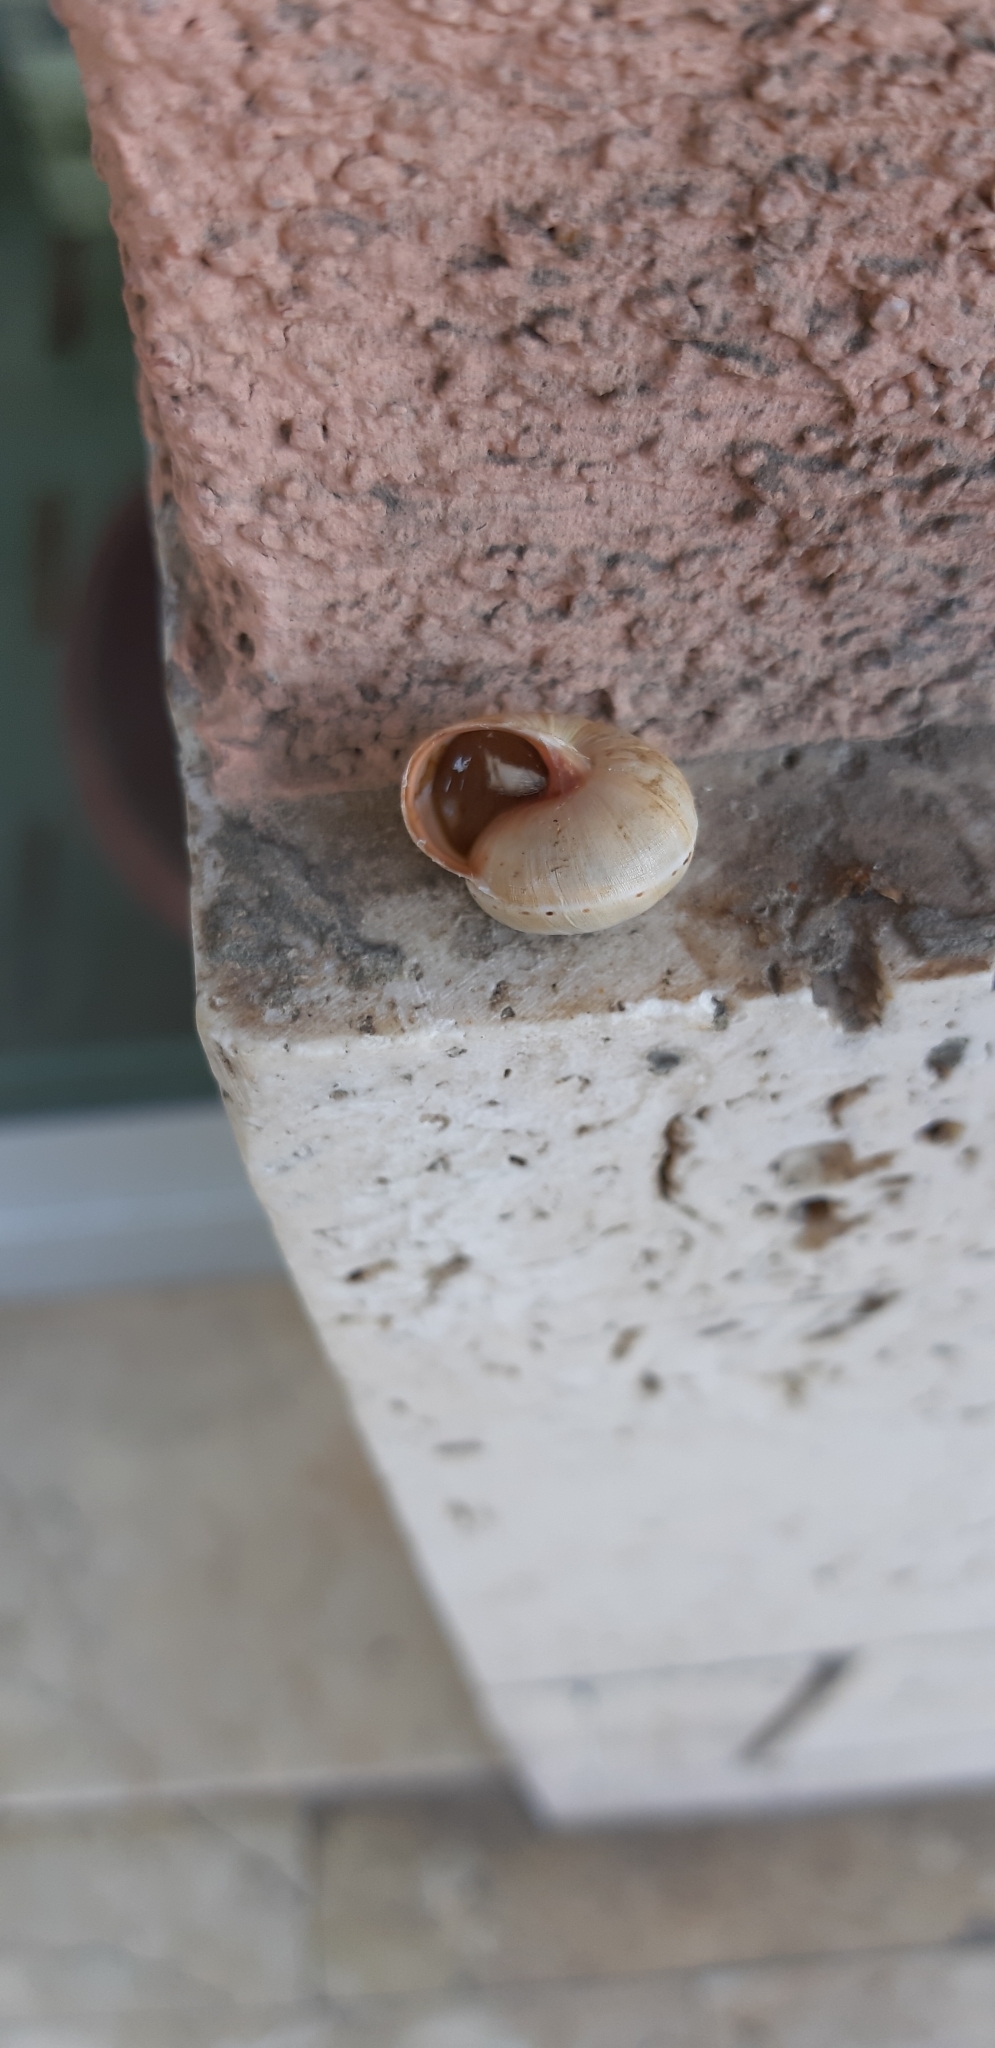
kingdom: Animalia
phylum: Mollusca
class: Gastropoda
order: Stylommatophora
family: Helicidae
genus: Theba
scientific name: Theba pisana
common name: White snail
